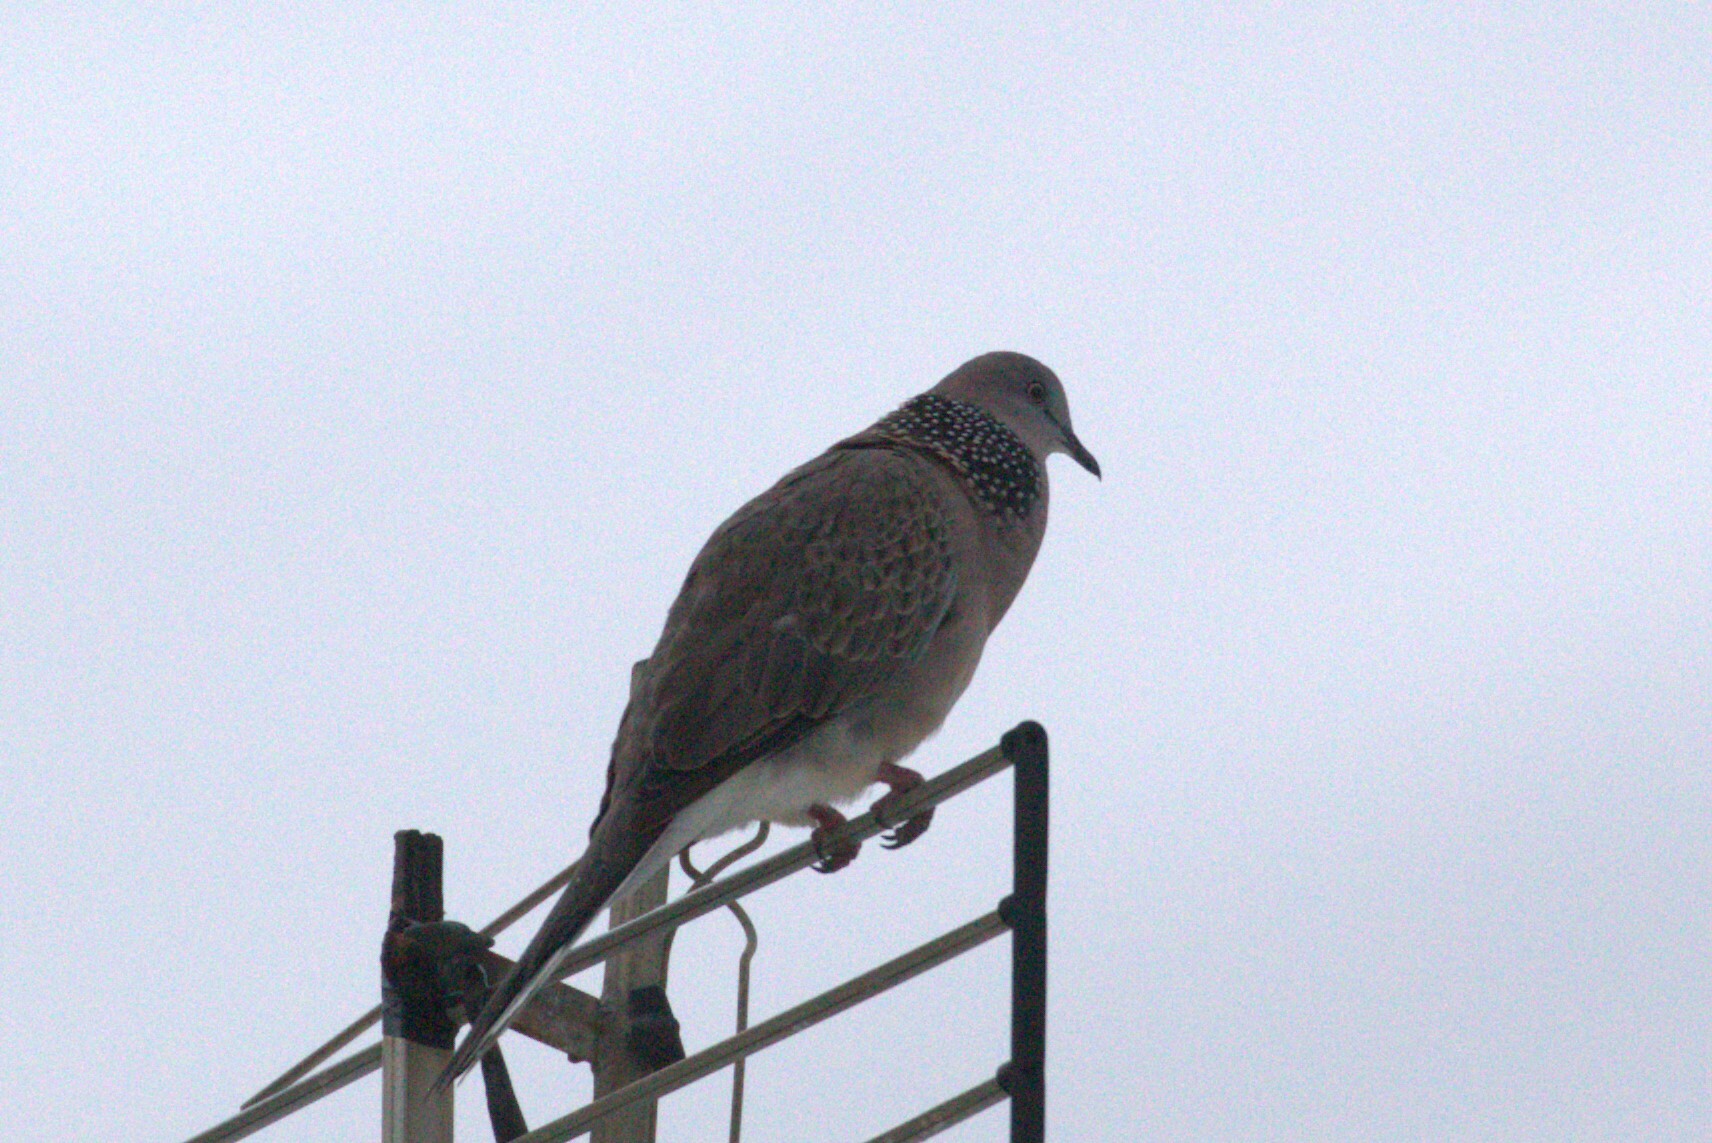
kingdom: Animalia
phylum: Chordata
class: Aves
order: Columbiformes
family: Columbidae
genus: Spilopelia
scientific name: Spilopelia chinensis
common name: Spotted dove
